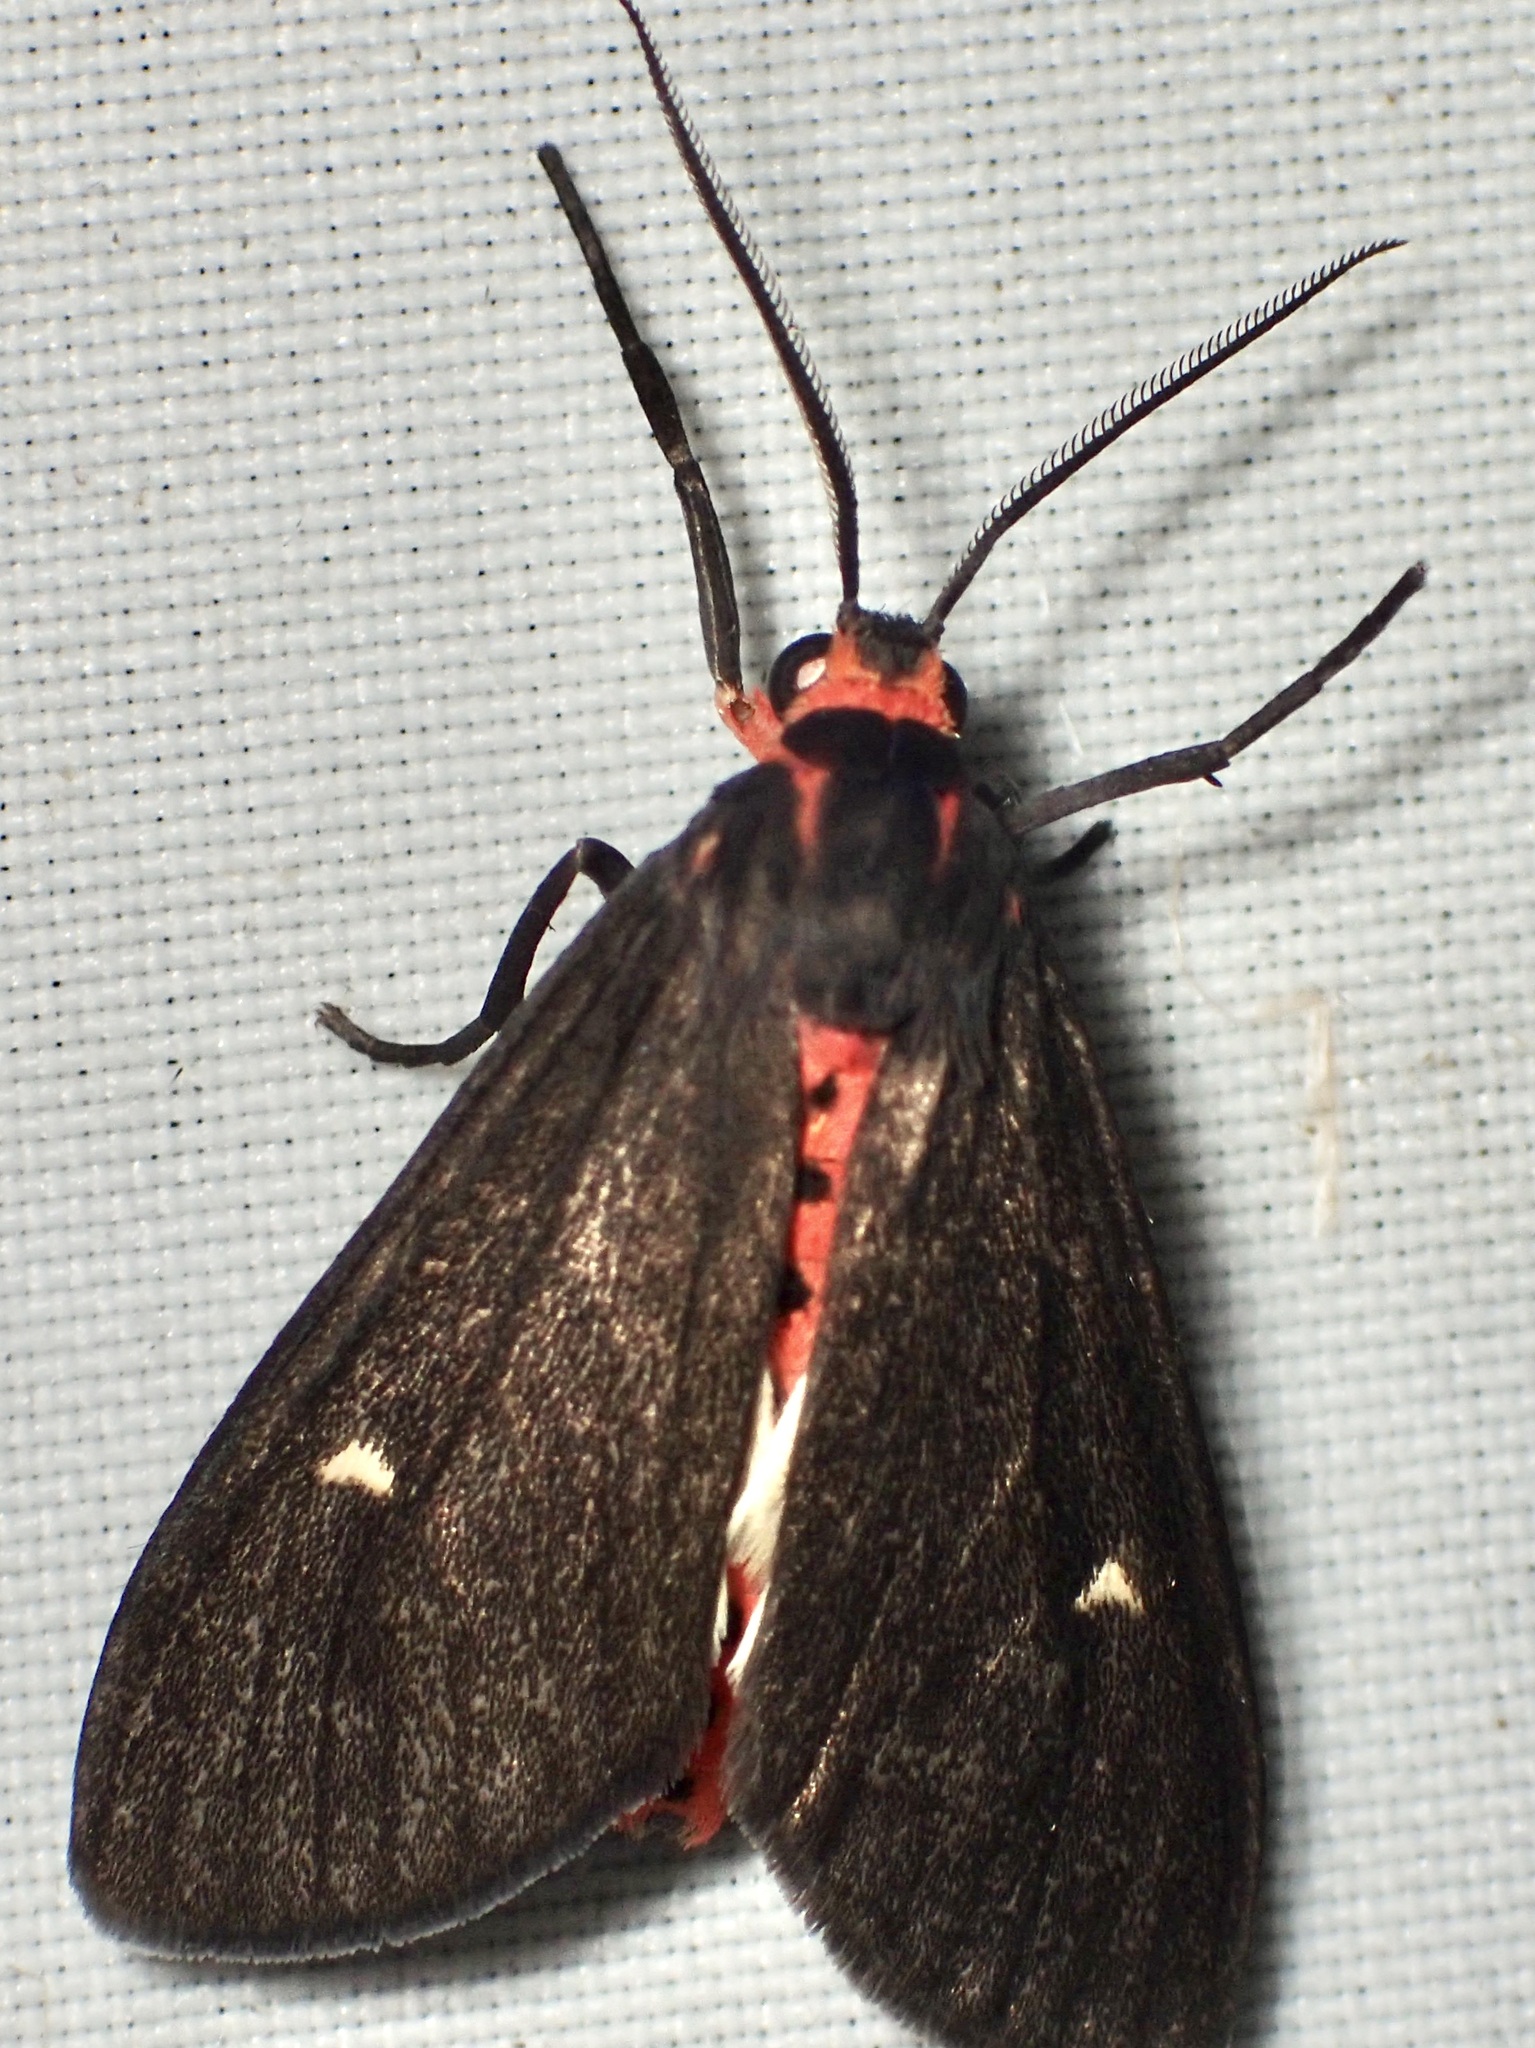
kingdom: Animalia
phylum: Arthropoda
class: Insecta
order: Lepidoptera
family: Erebidae
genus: Euchaetes
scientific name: Euchaetes zella
